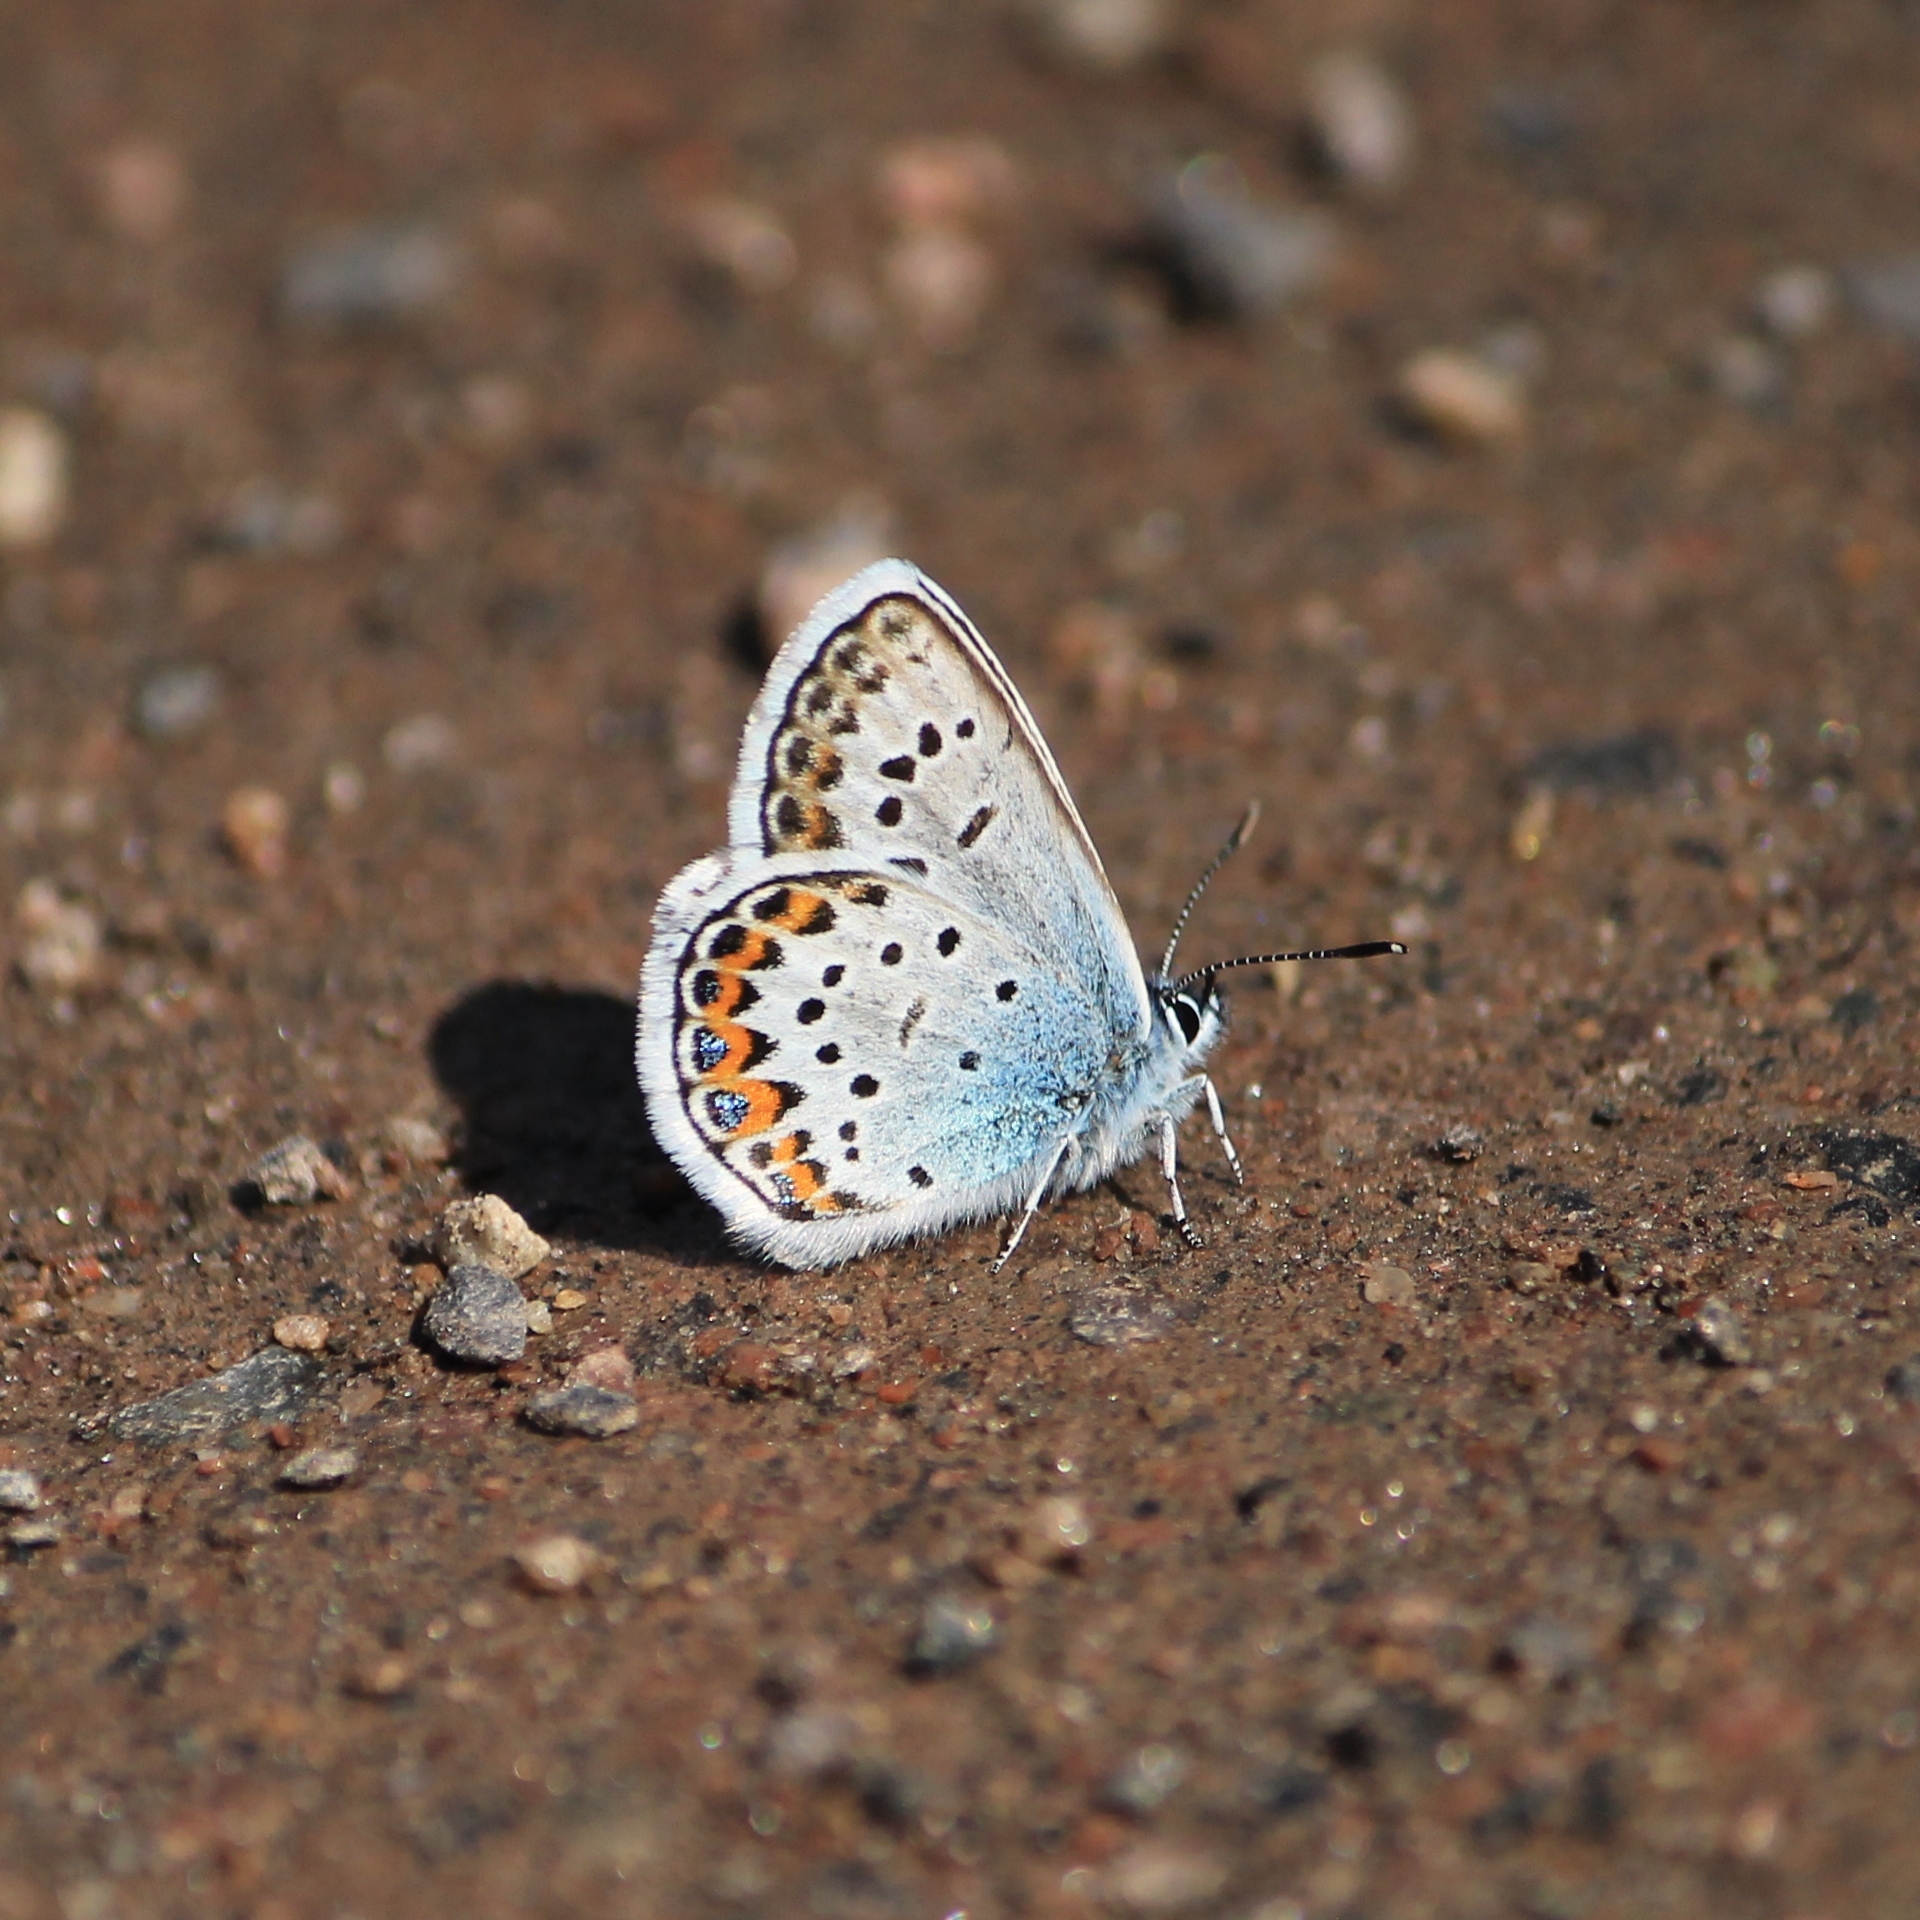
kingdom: Animalia
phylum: Arthropoda
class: Insecta
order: Lepidoptera
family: Lycaenidae
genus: Plebejus
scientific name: Plebejus argus
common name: Silver-studded blue
